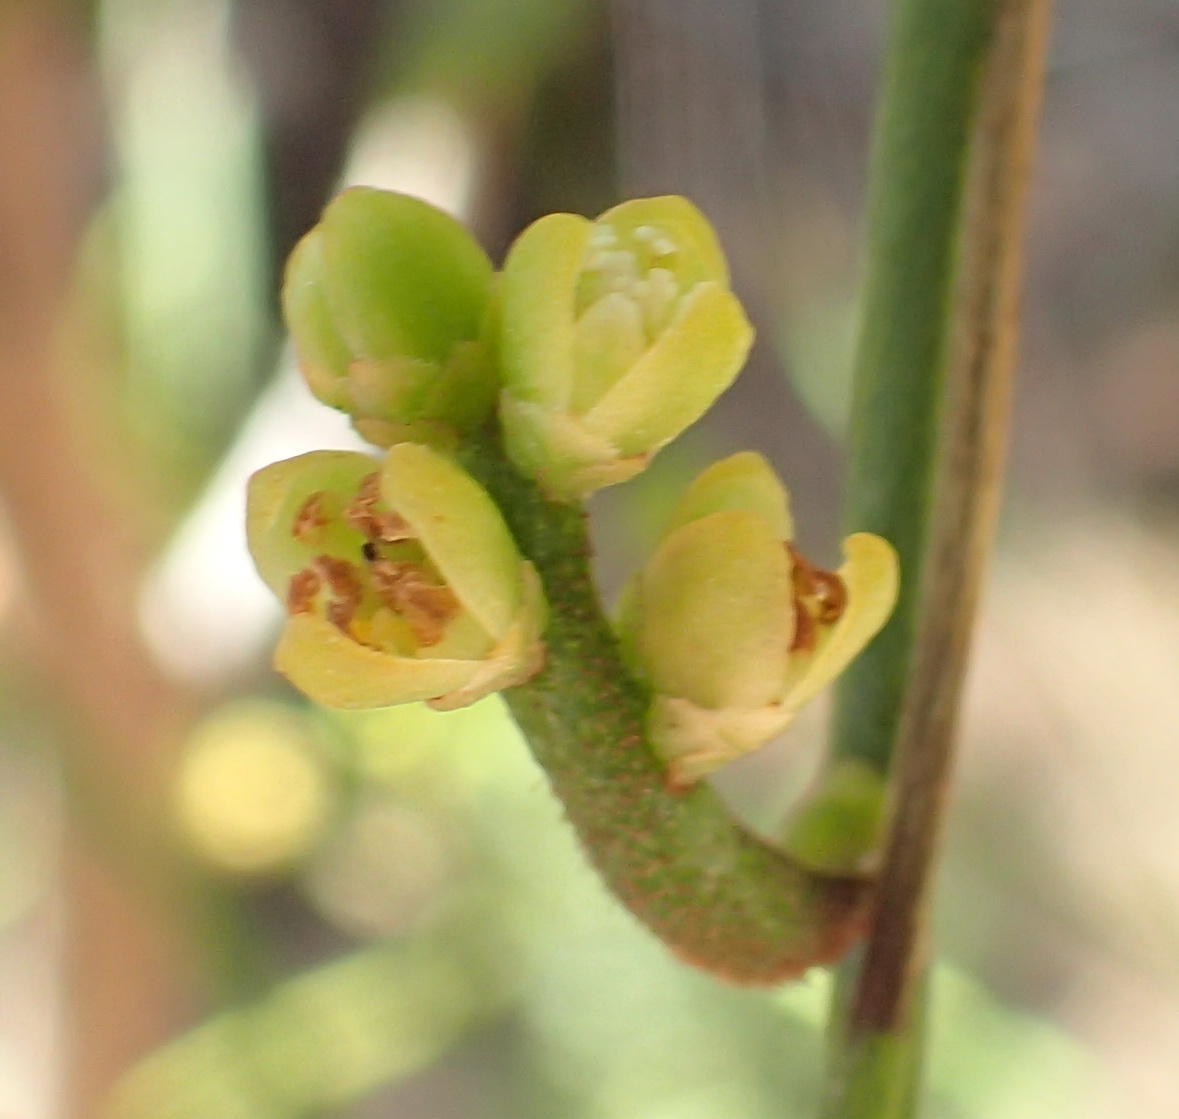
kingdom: Plantae
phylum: Tracheophyta
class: Magnoliopsida
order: Laurales
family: Lauraceae
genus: Cassytha
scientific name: Cassytha ciliolata
